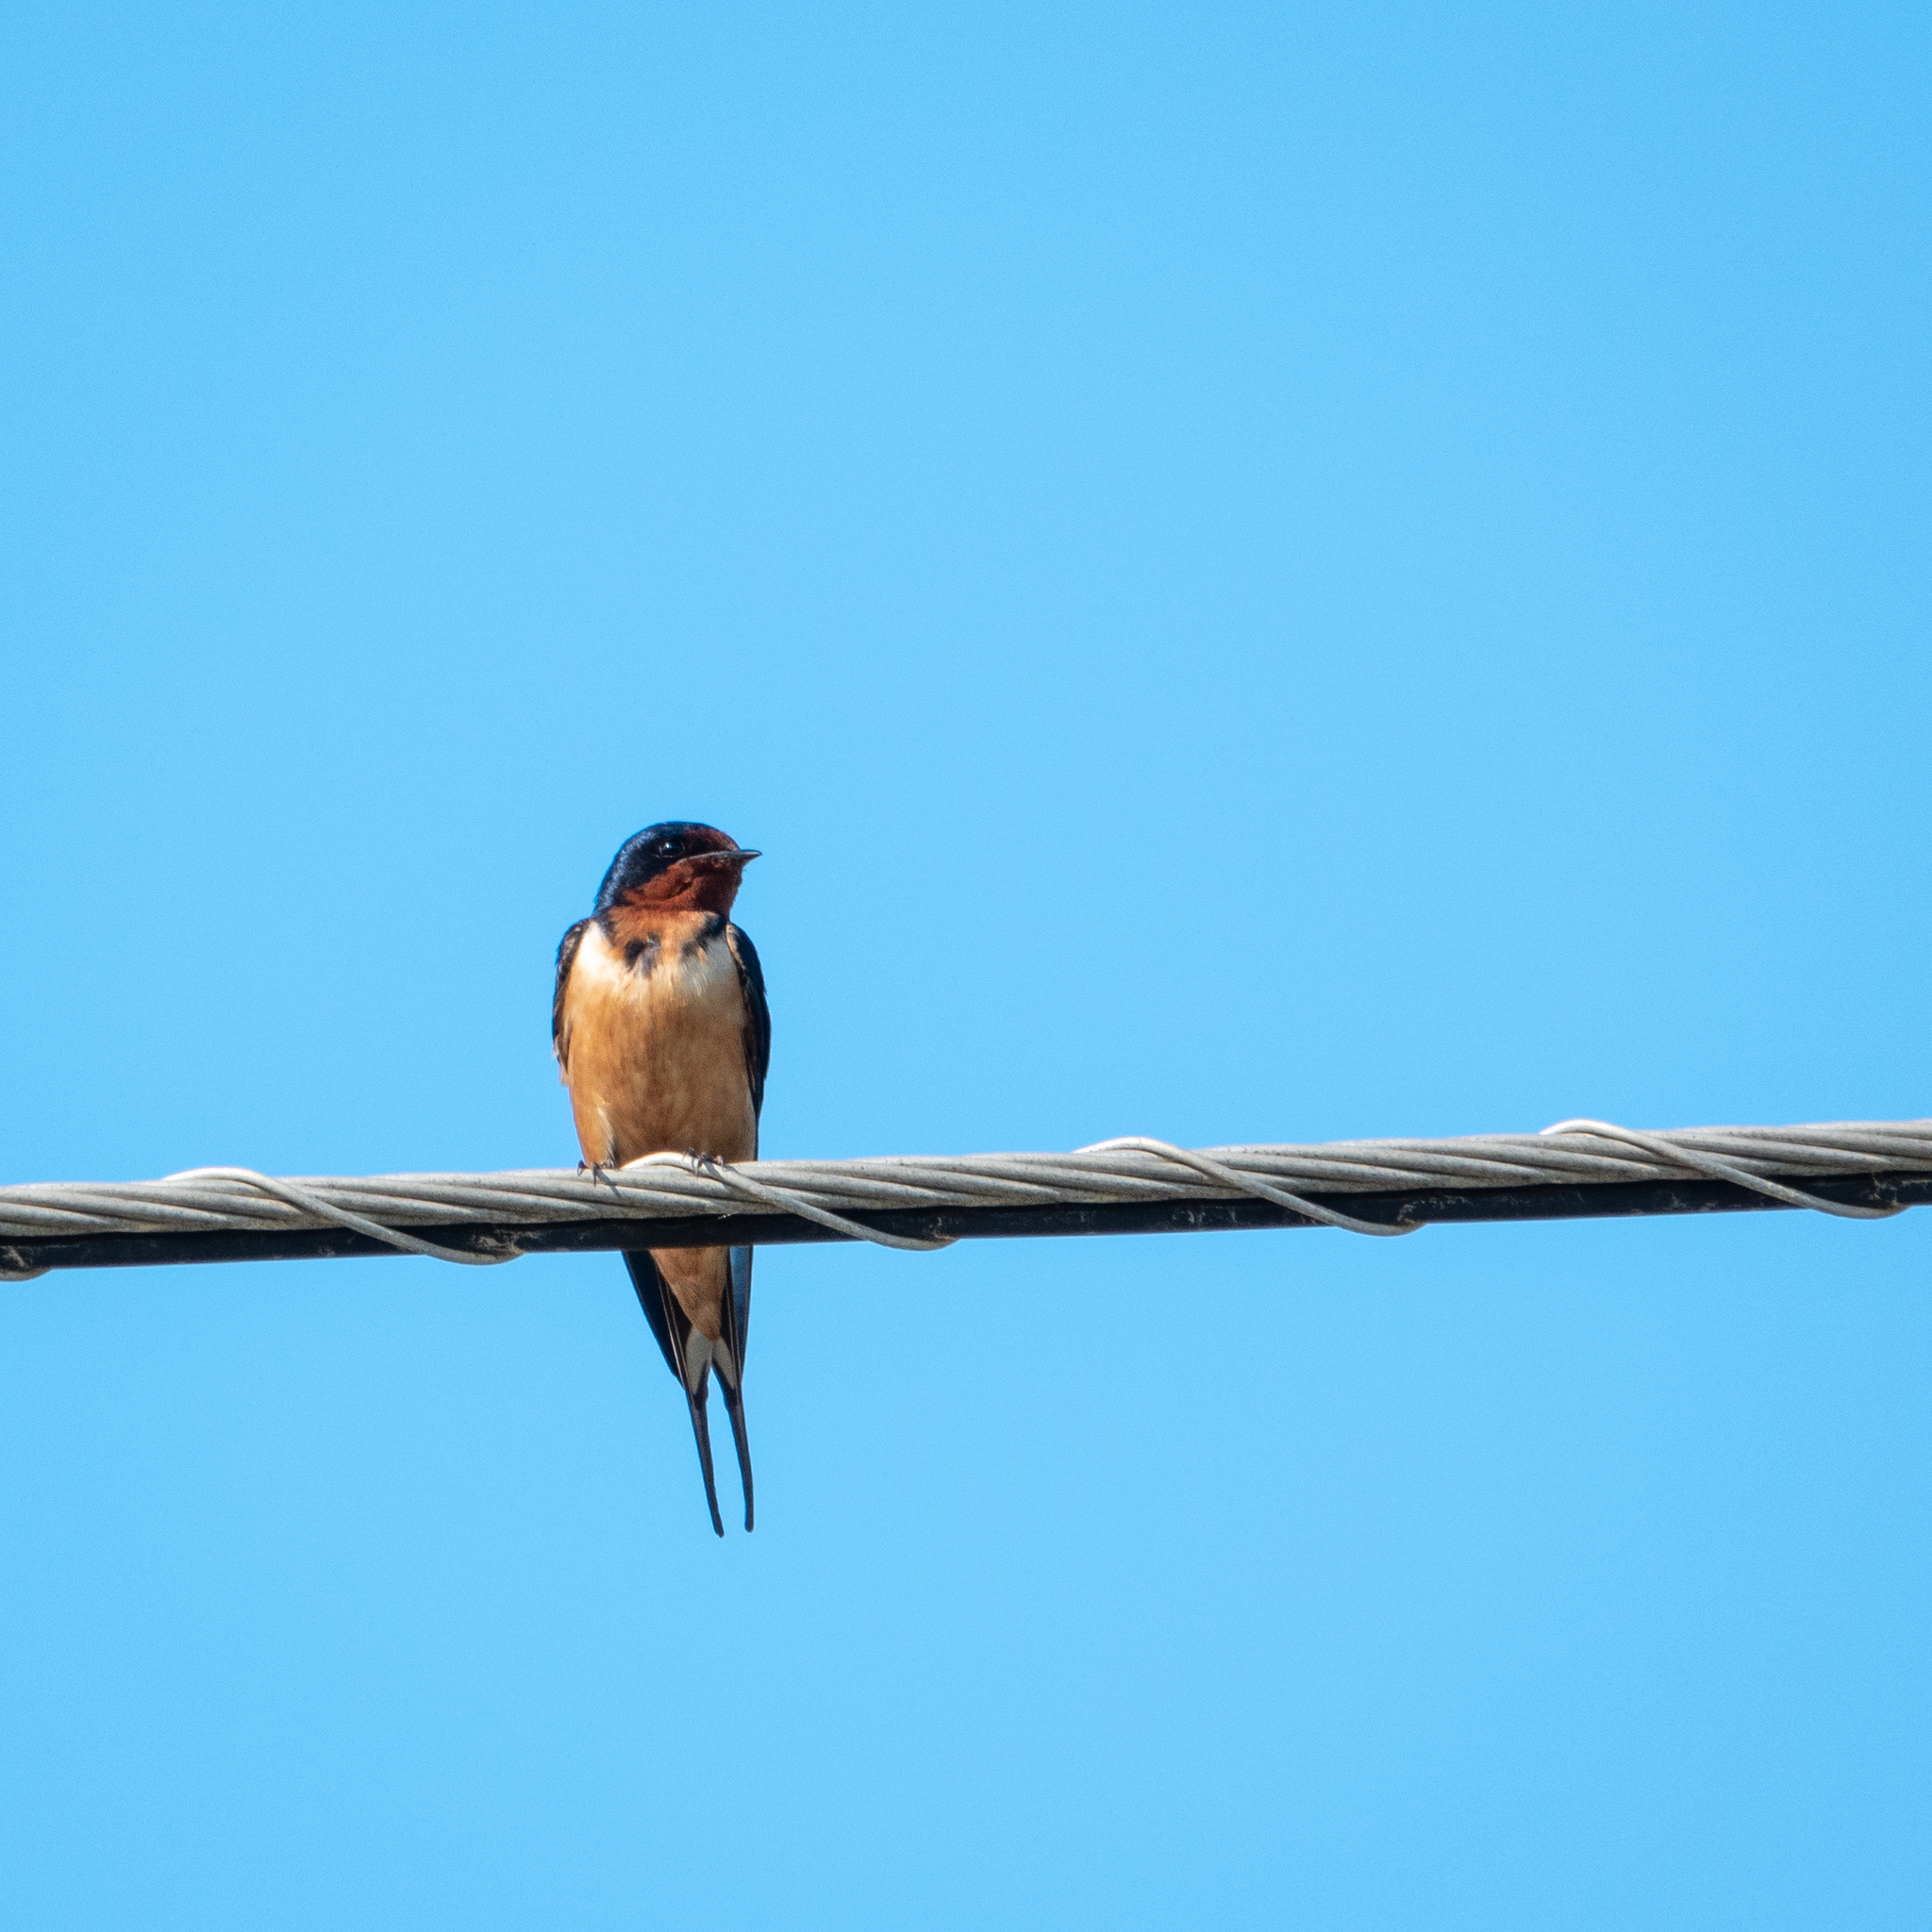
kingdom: Animalia
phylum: Chordata
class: Aves
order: Passeriformes
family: Hirundinidae
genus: Hirundo
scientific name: Hirundo rustica
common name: Barn swallow
